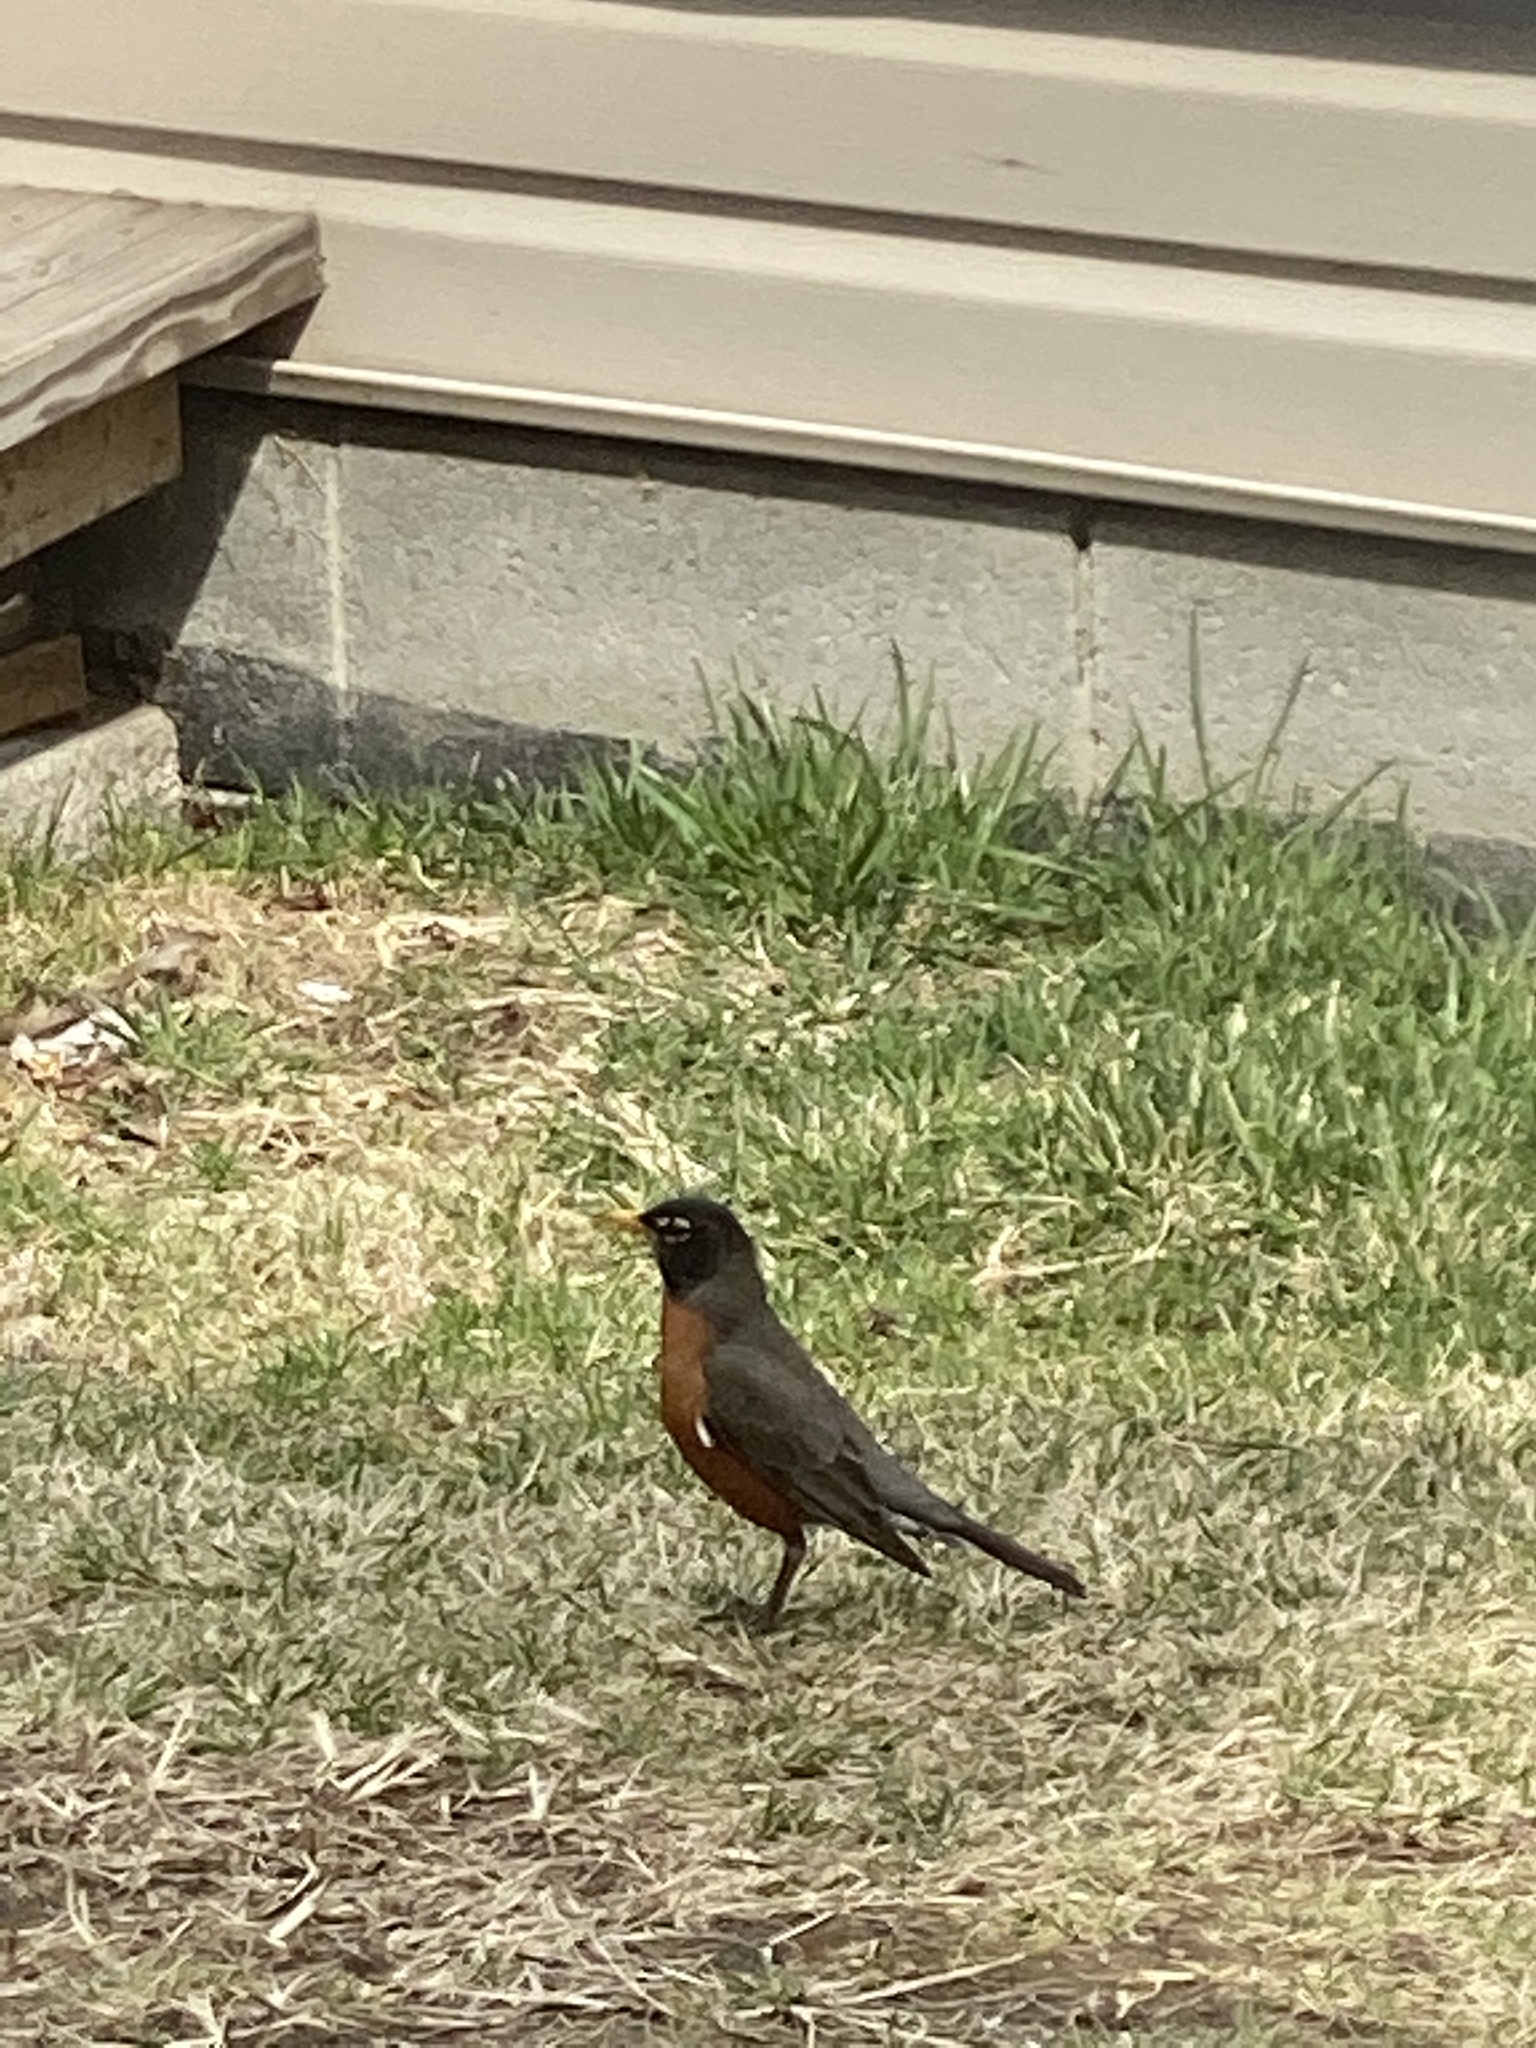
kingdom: Animalia
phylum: Chordata
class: Aves
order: Passeriformes
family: Turdidae
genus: Turdus
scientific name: Turdus migratorius
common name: American robin
